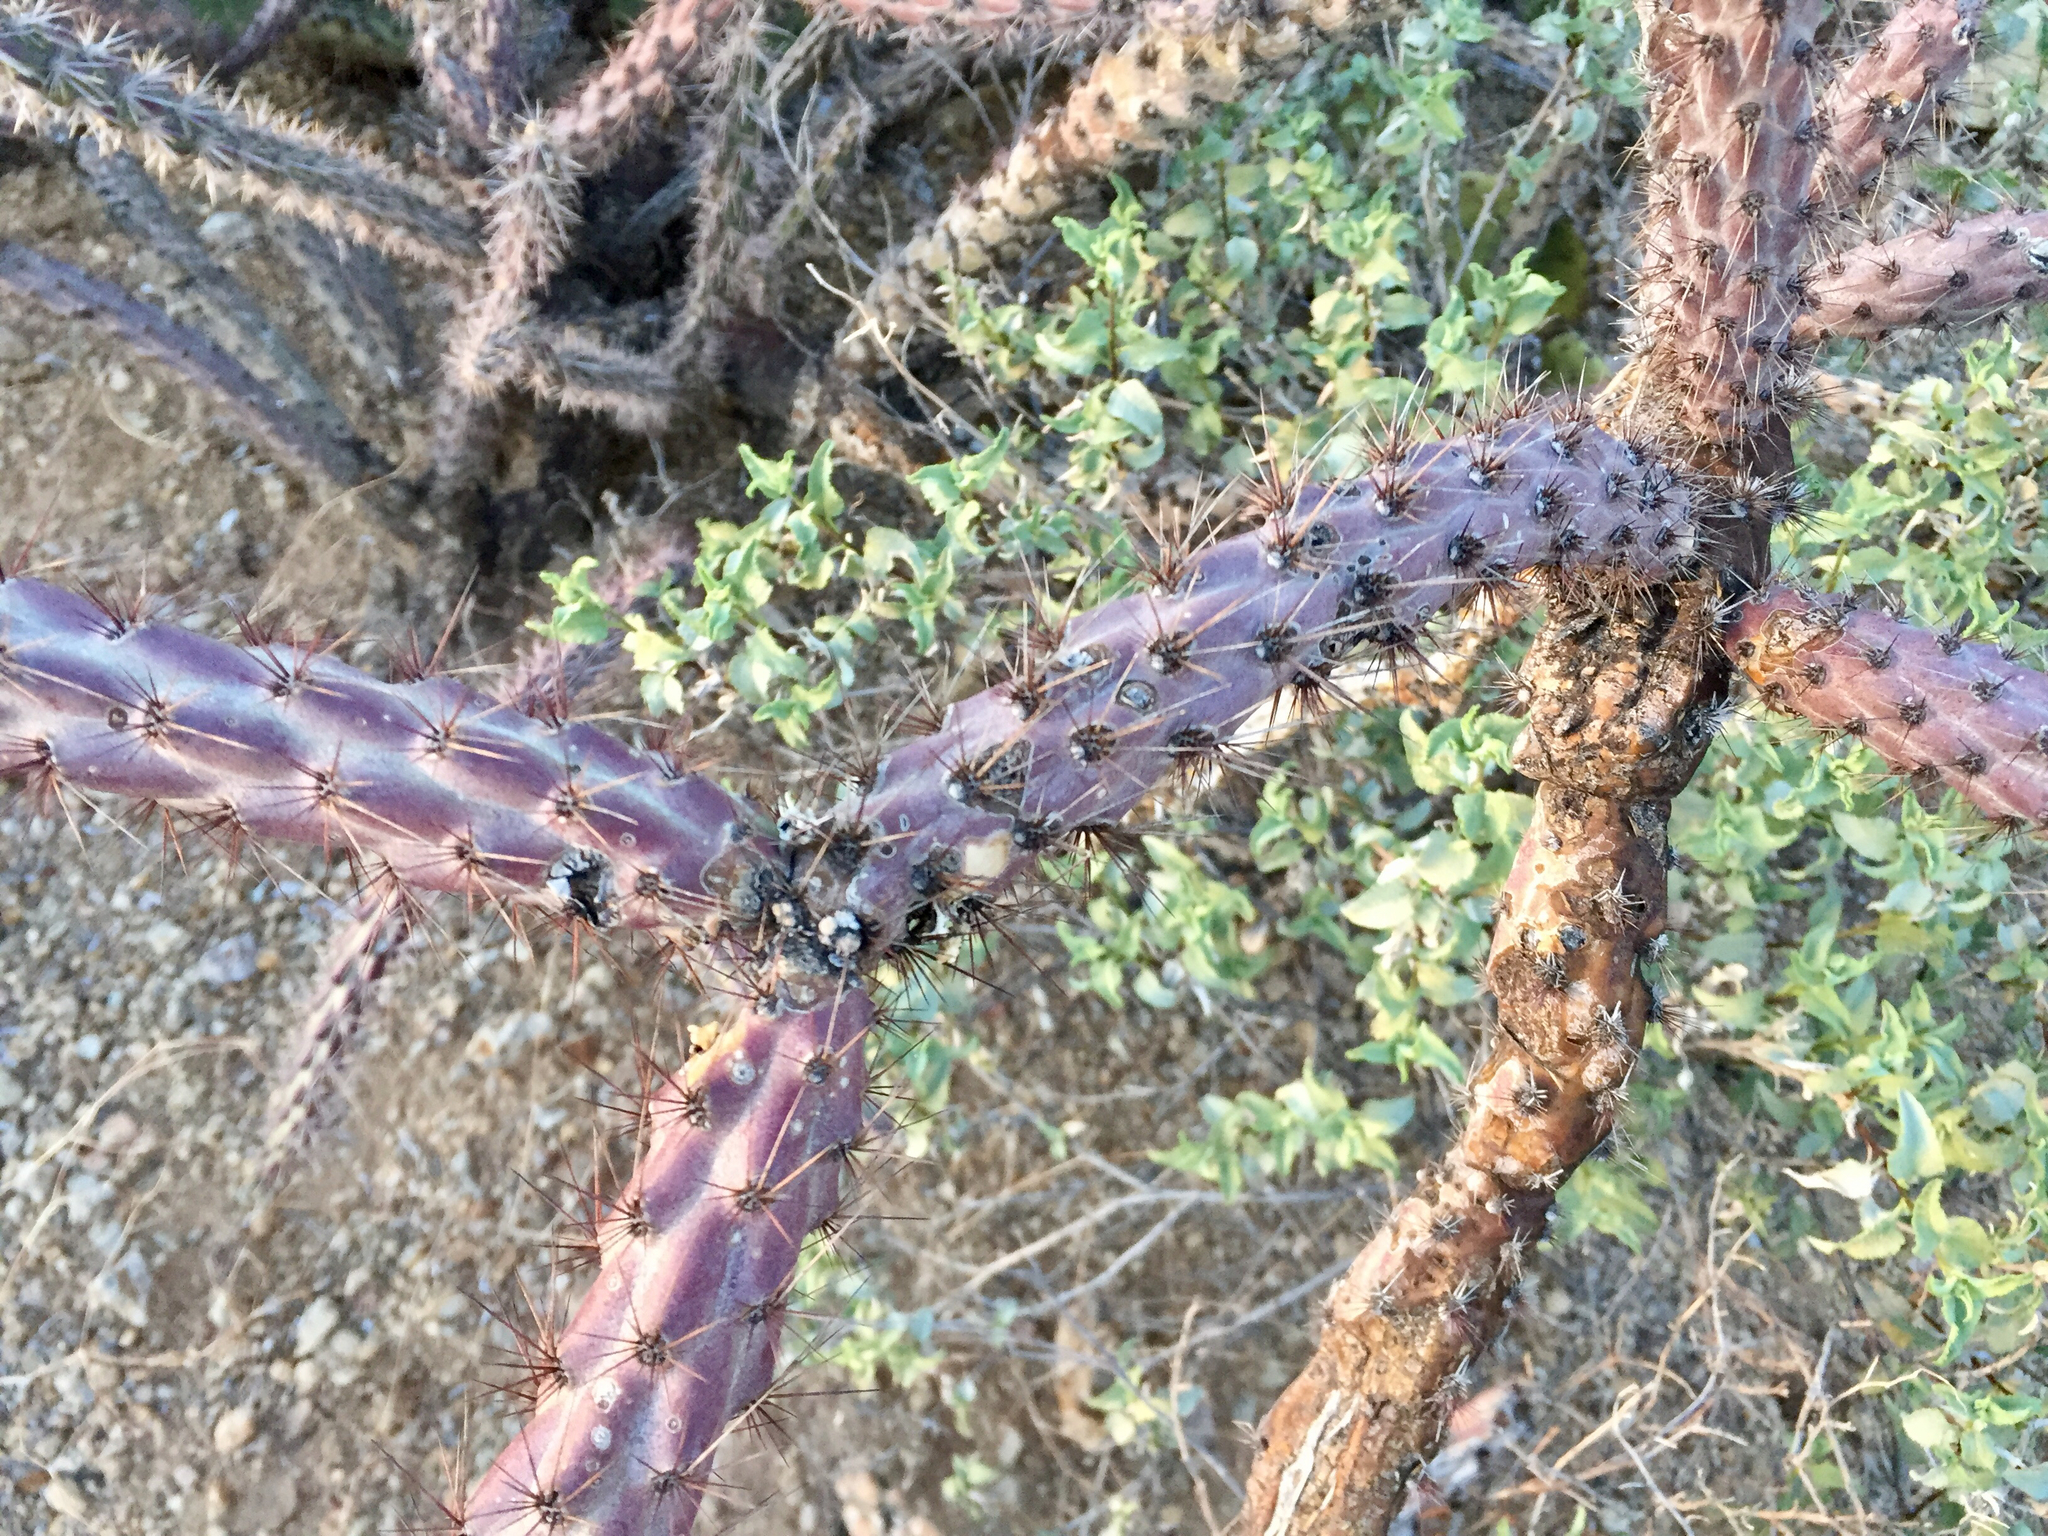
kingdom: Plantae
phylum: Tracheophyta
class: Magnoliopsida
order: Caryophyllales
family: Cactaceae
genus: Cylindropuntia
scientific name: Cylindropuntia thurberi
